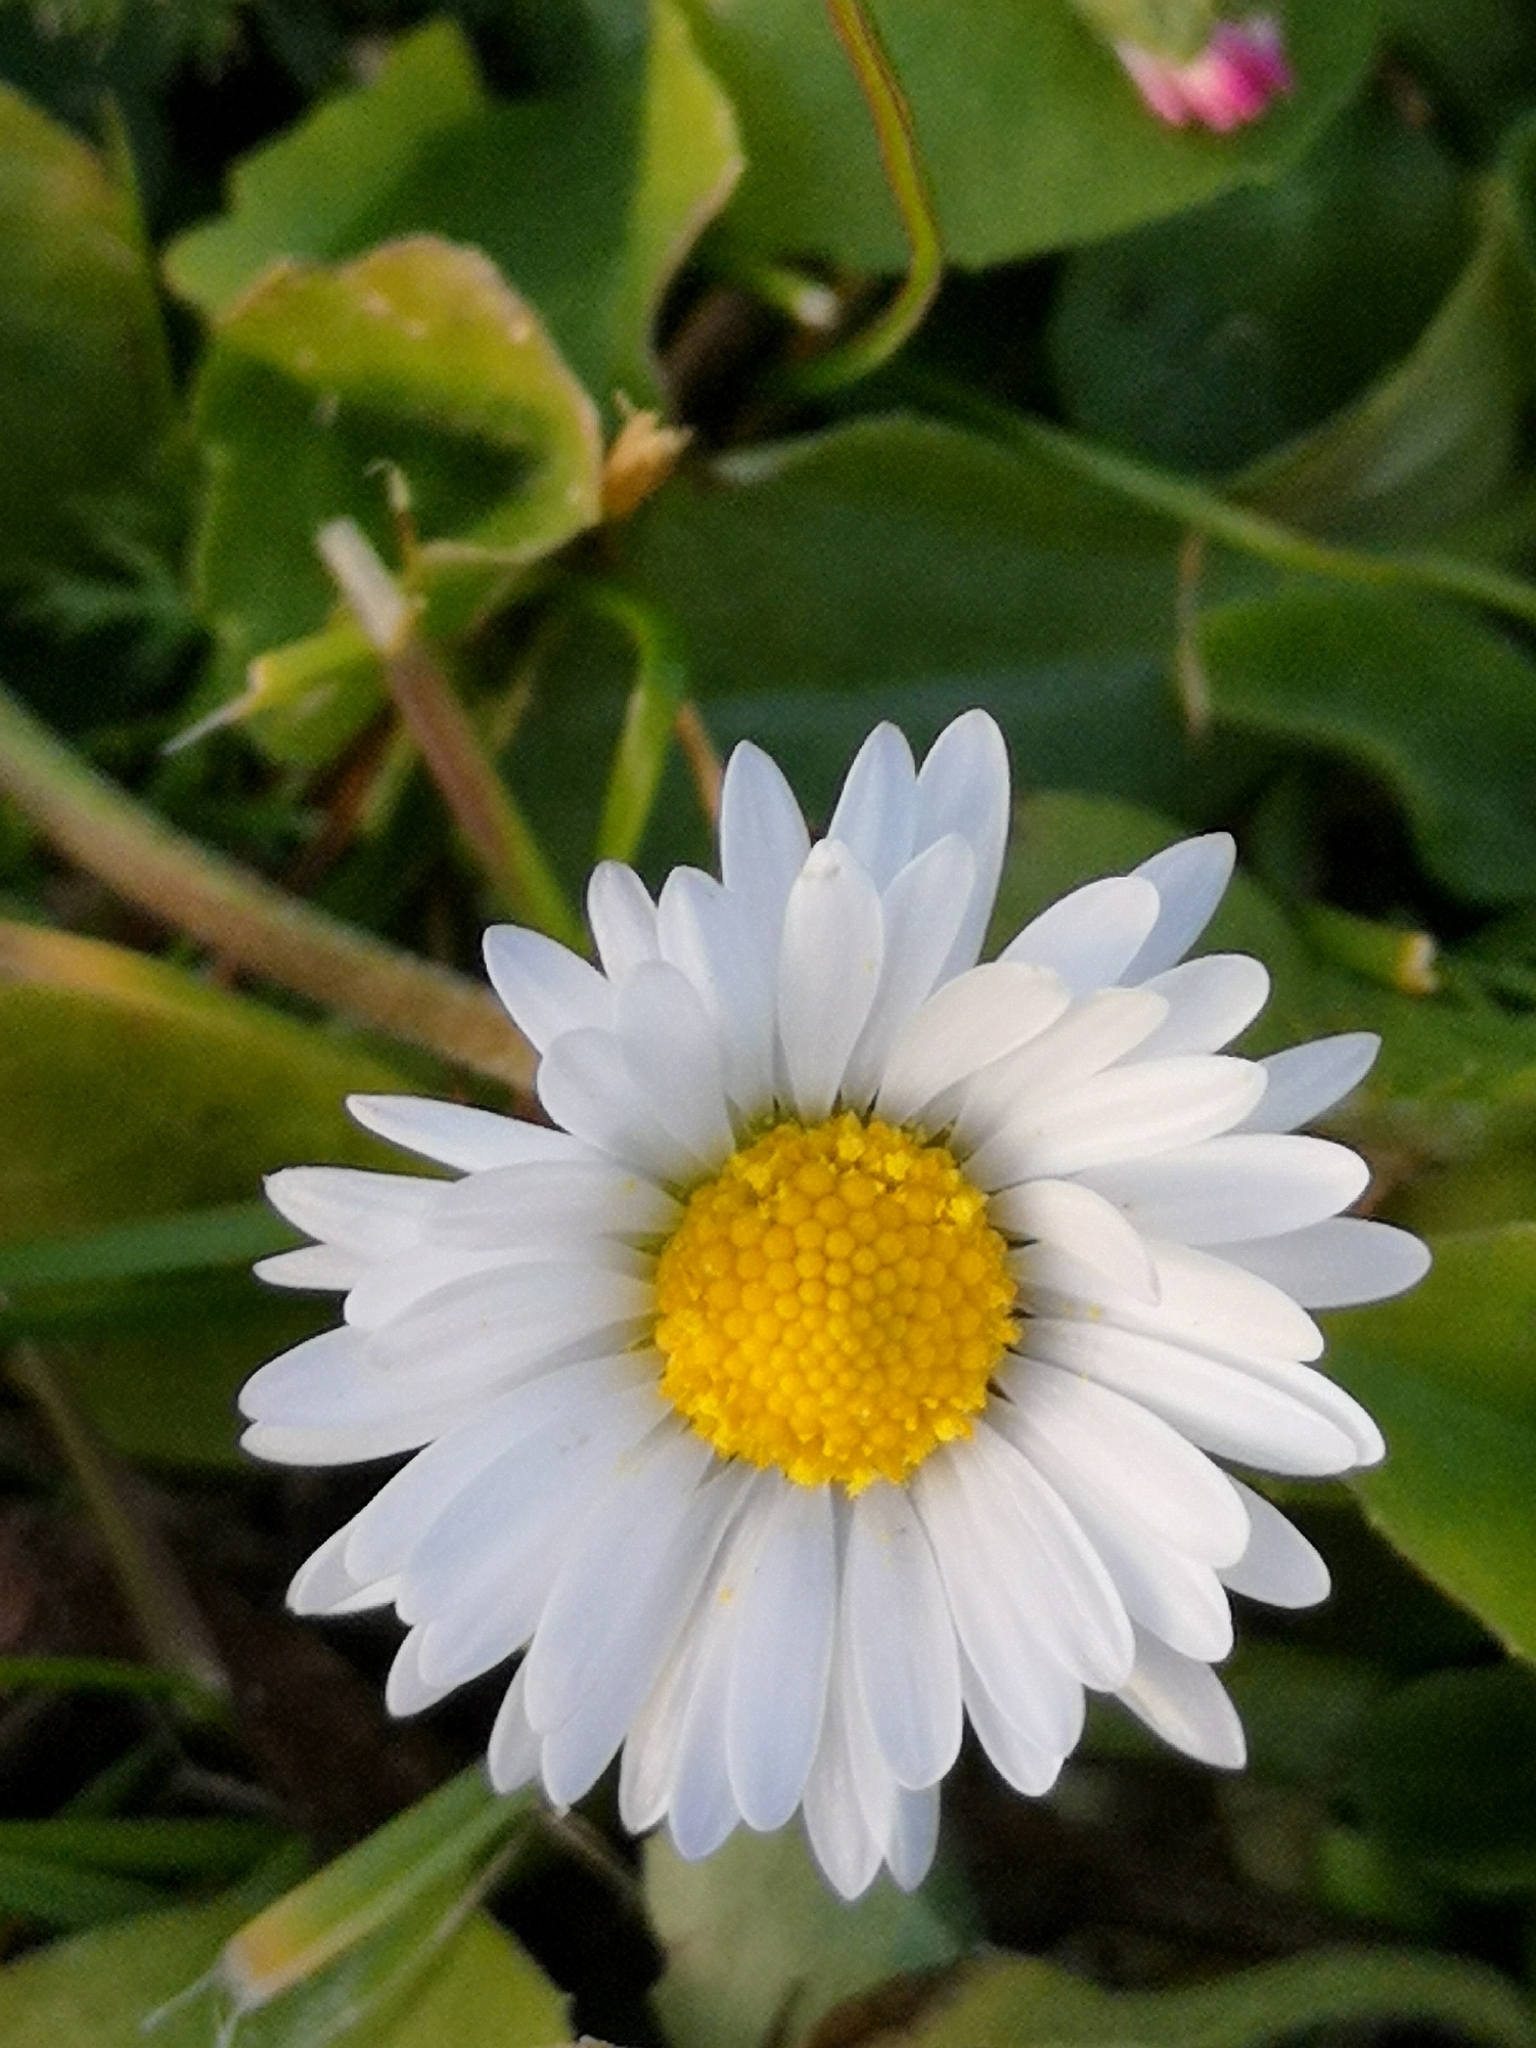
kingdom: Plantae
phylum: Tracheophyta
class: Magnoliopsida
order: Asterales
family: Asteraceae
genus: Bellis
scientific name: Bellis perennis
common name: Lawndaisy
